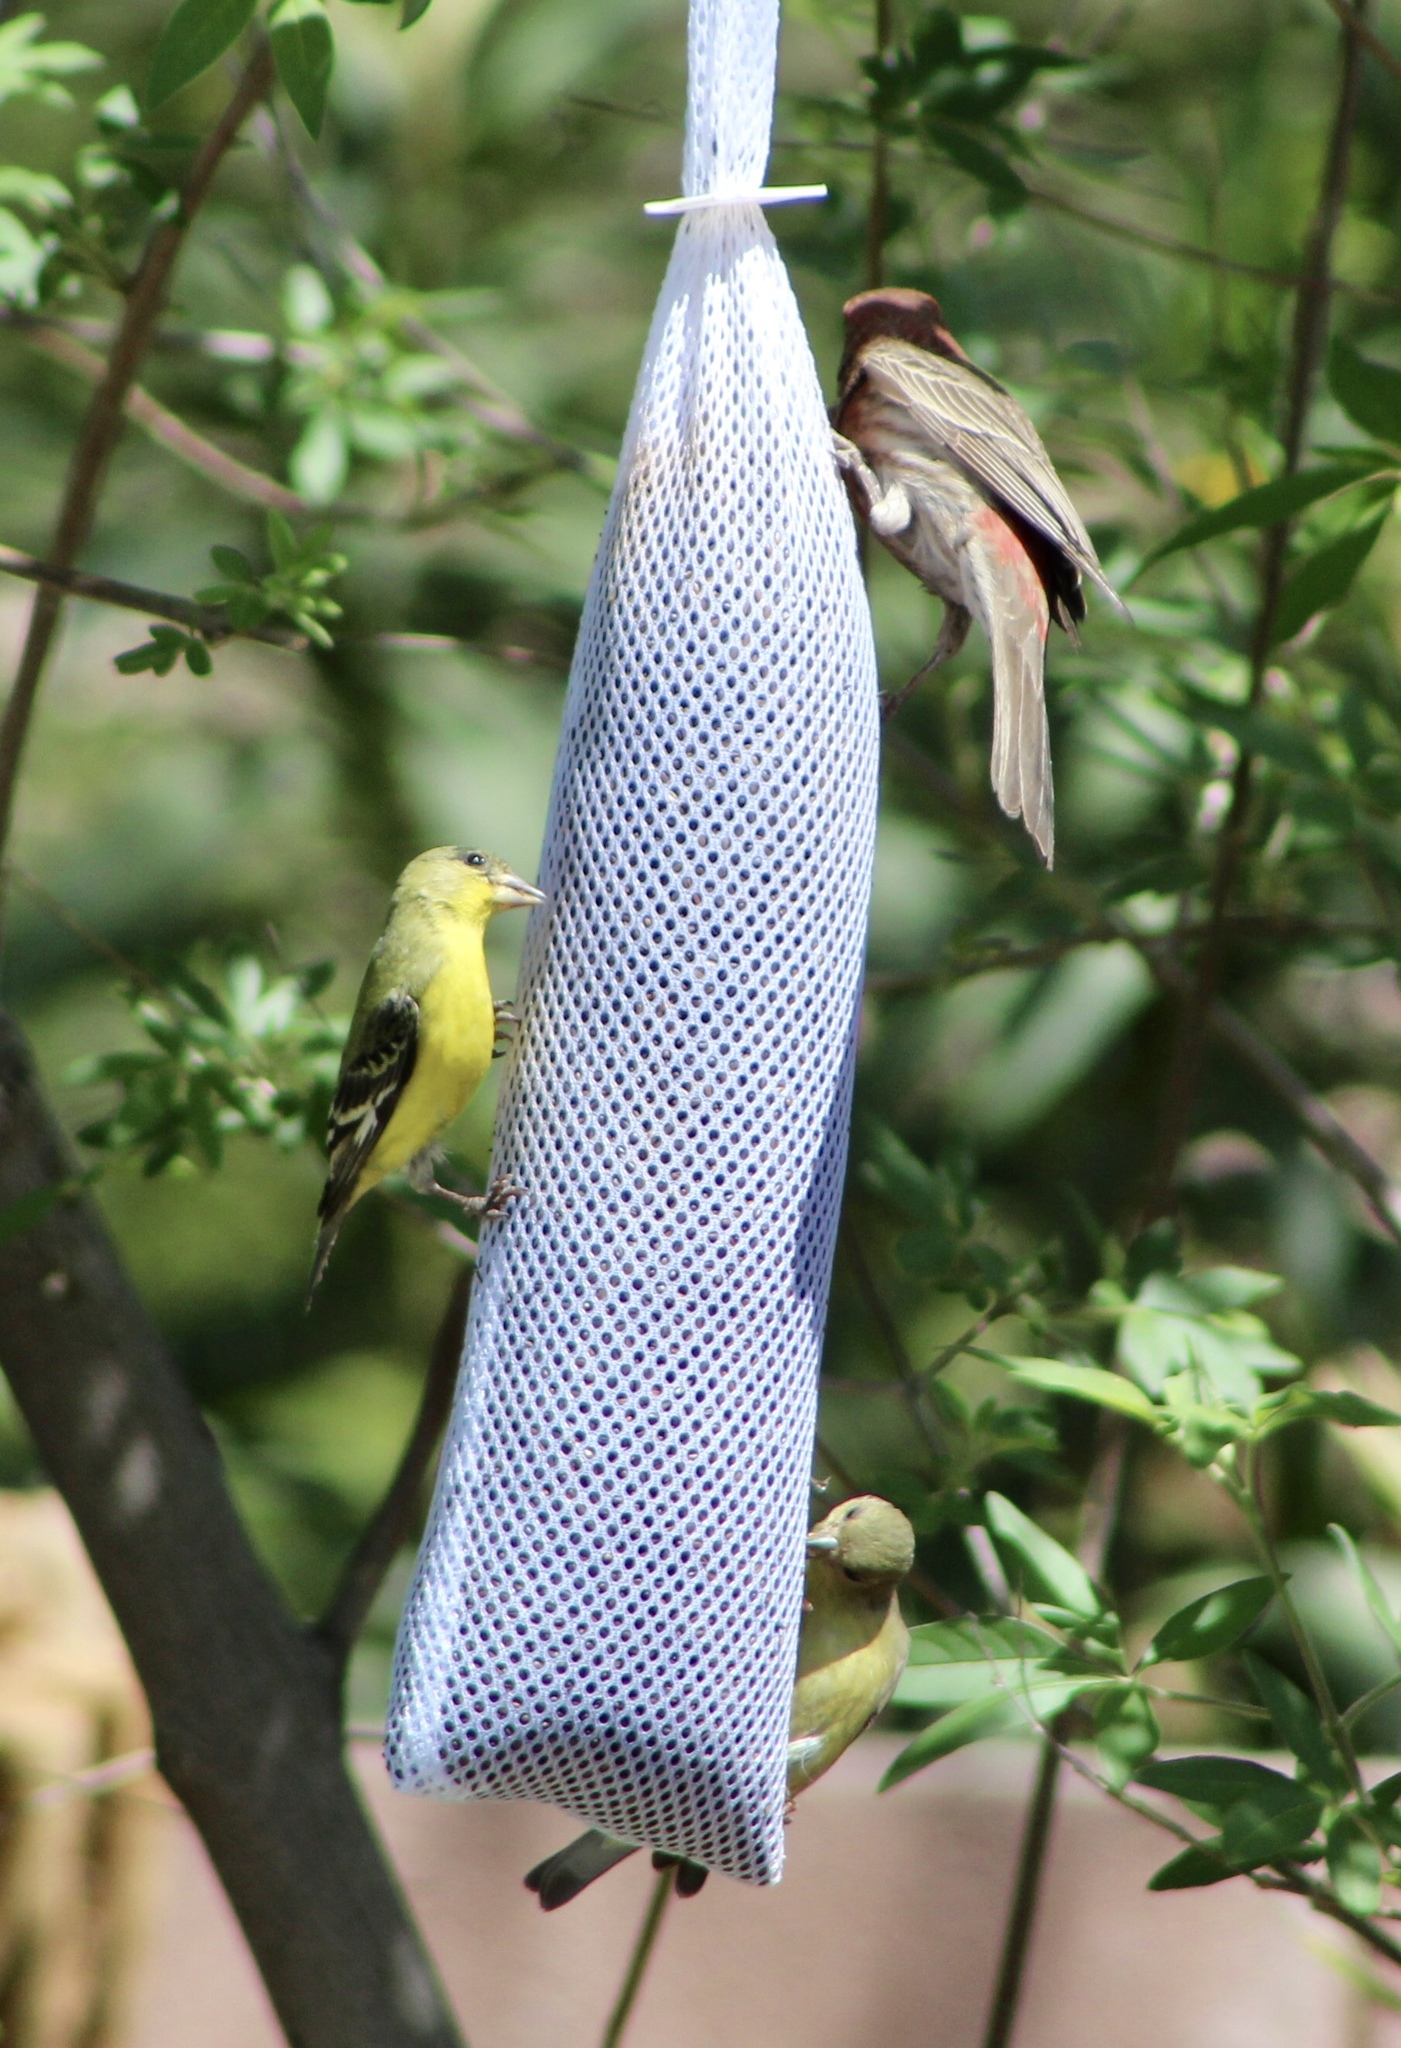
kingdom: Animalia
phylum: Chordata
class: Aves
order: Passeriformes
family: Fringillidae
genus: Haemorhous
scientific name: Haemorhous mexicanus
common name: House finch
